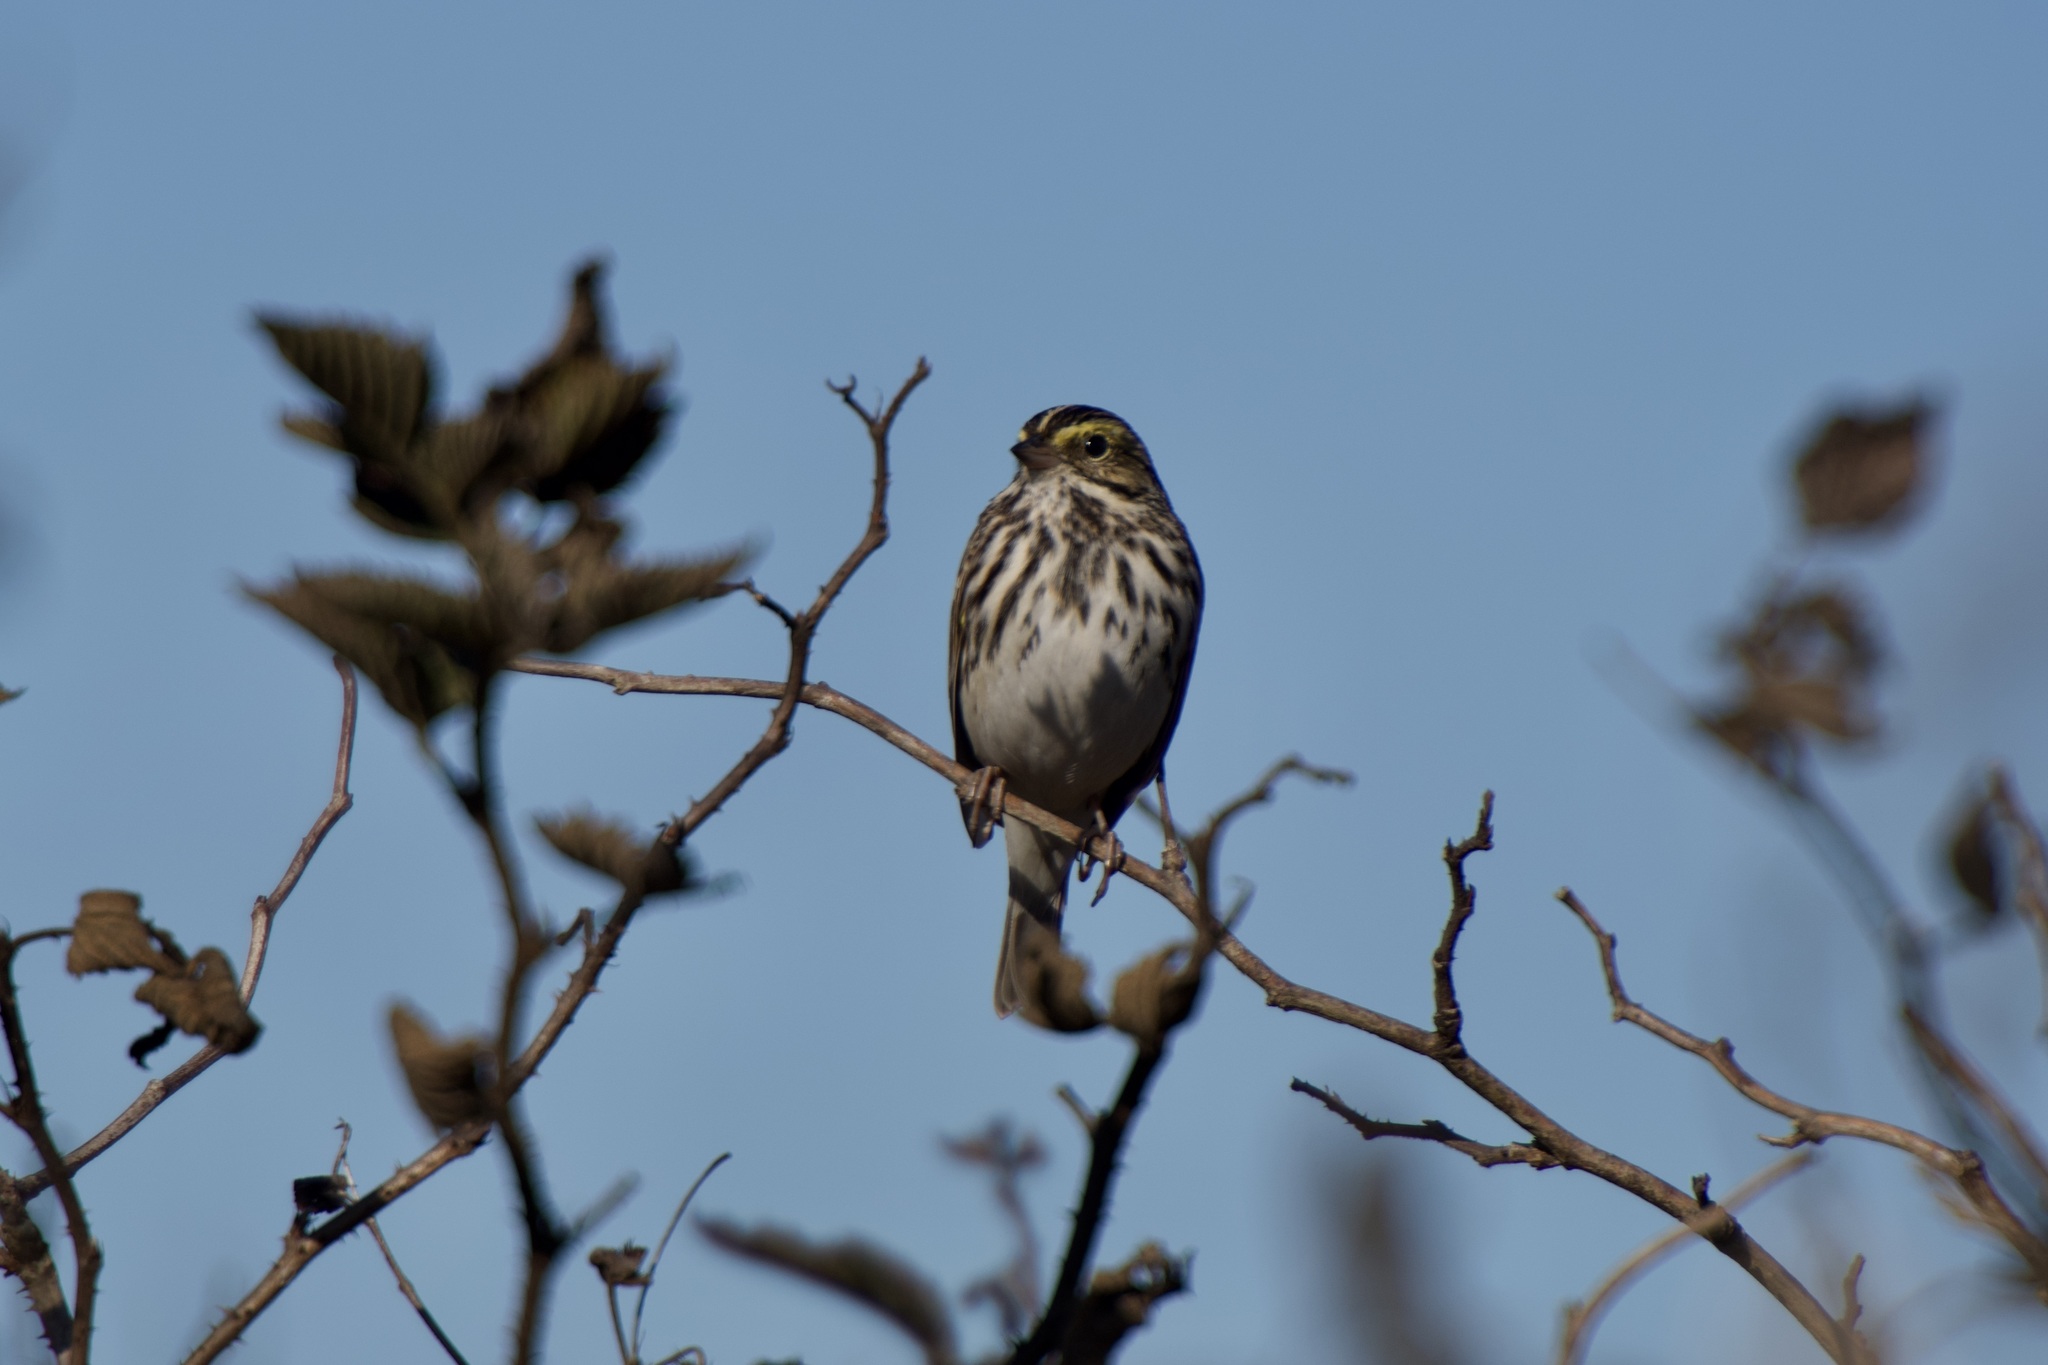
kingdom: Animalia
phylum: Chordata
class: Aves
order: Passeriformes
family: Passerellidae
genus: Passerculus
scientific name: Passerculus sandwichensis
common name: Savannah sparrow
